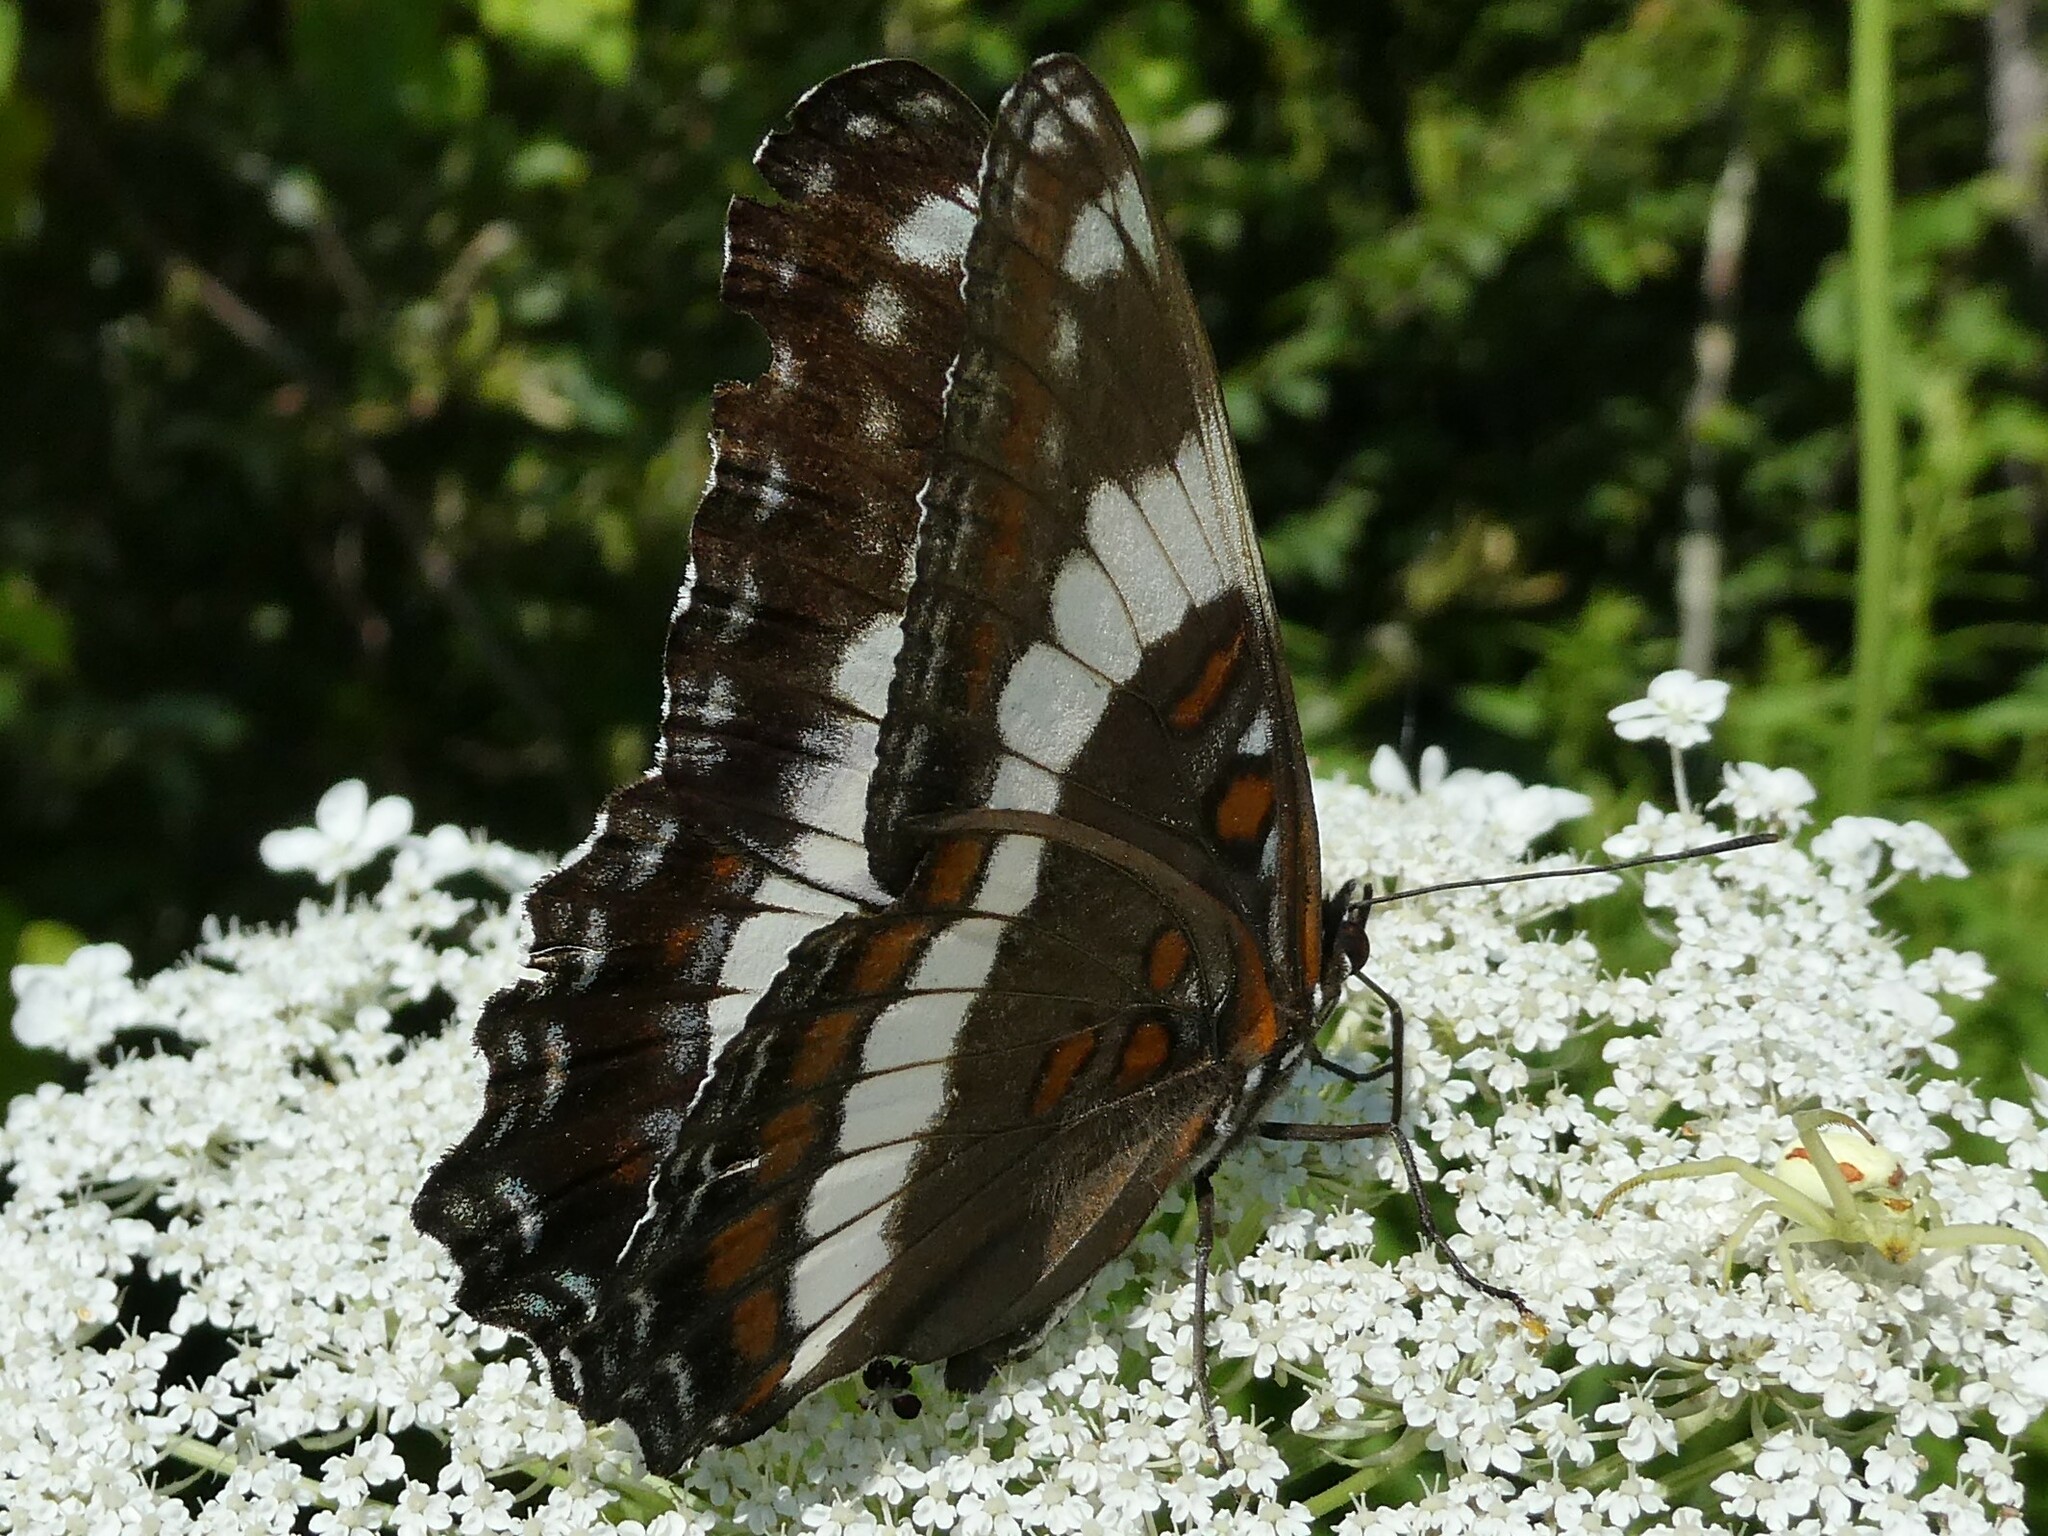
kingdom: Animalia
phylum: Arthropoda
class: Insecta
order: Lepidoptera
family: Nymphalidae
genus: Limenitis
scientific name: Limenitis arthemis
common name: Red-spotted admiral
